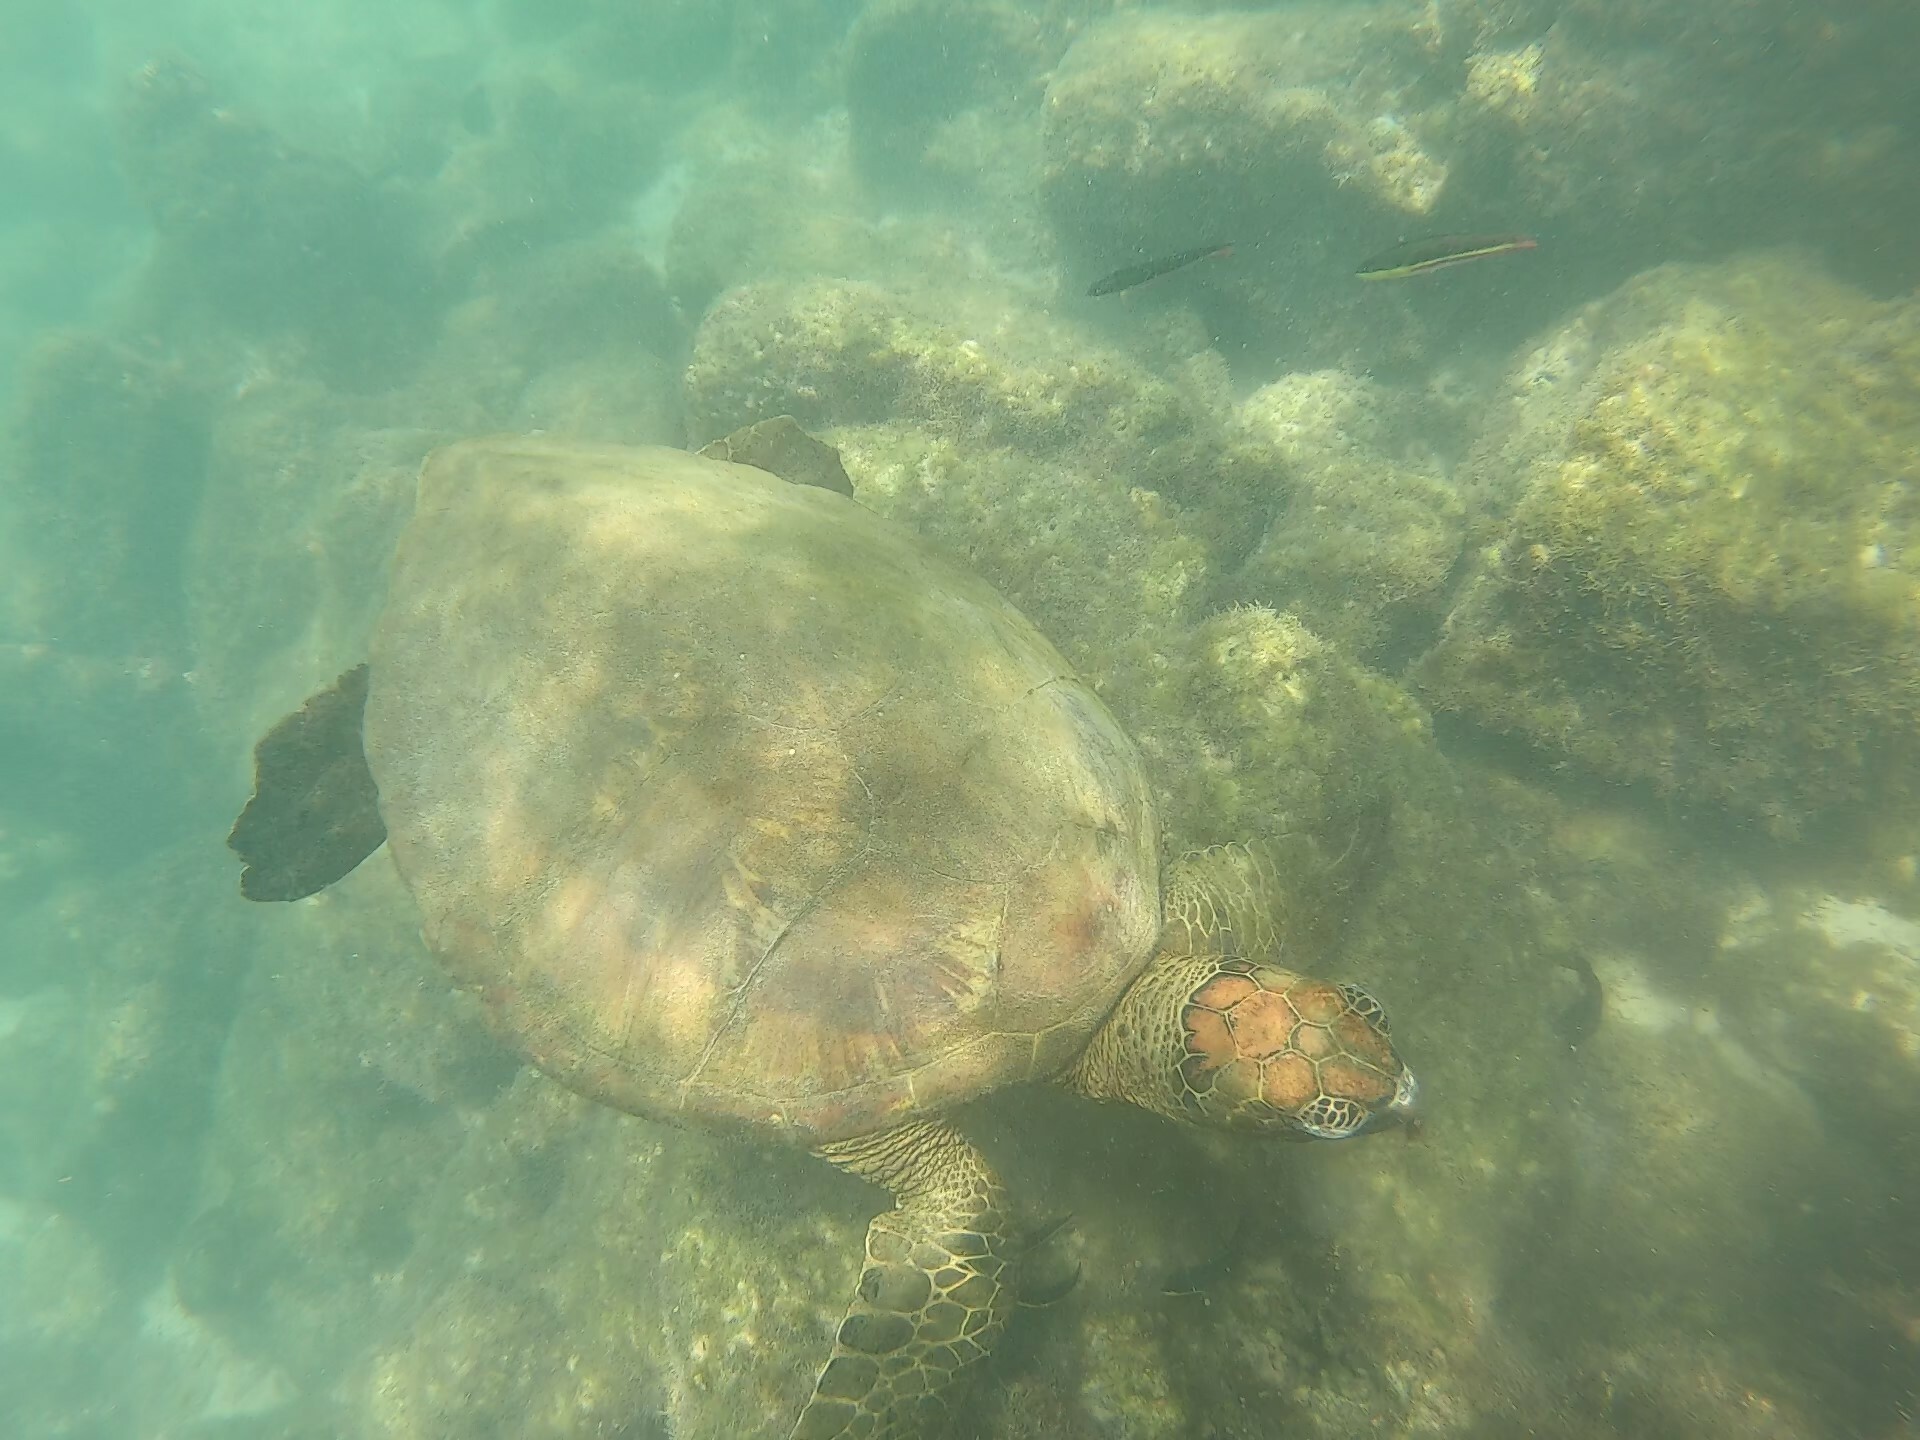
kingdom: Animalia
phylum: Chordata
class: Testudines
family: Cheloniidae
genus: Chelonia
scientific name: Chelonia mydas
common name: Green turtle
